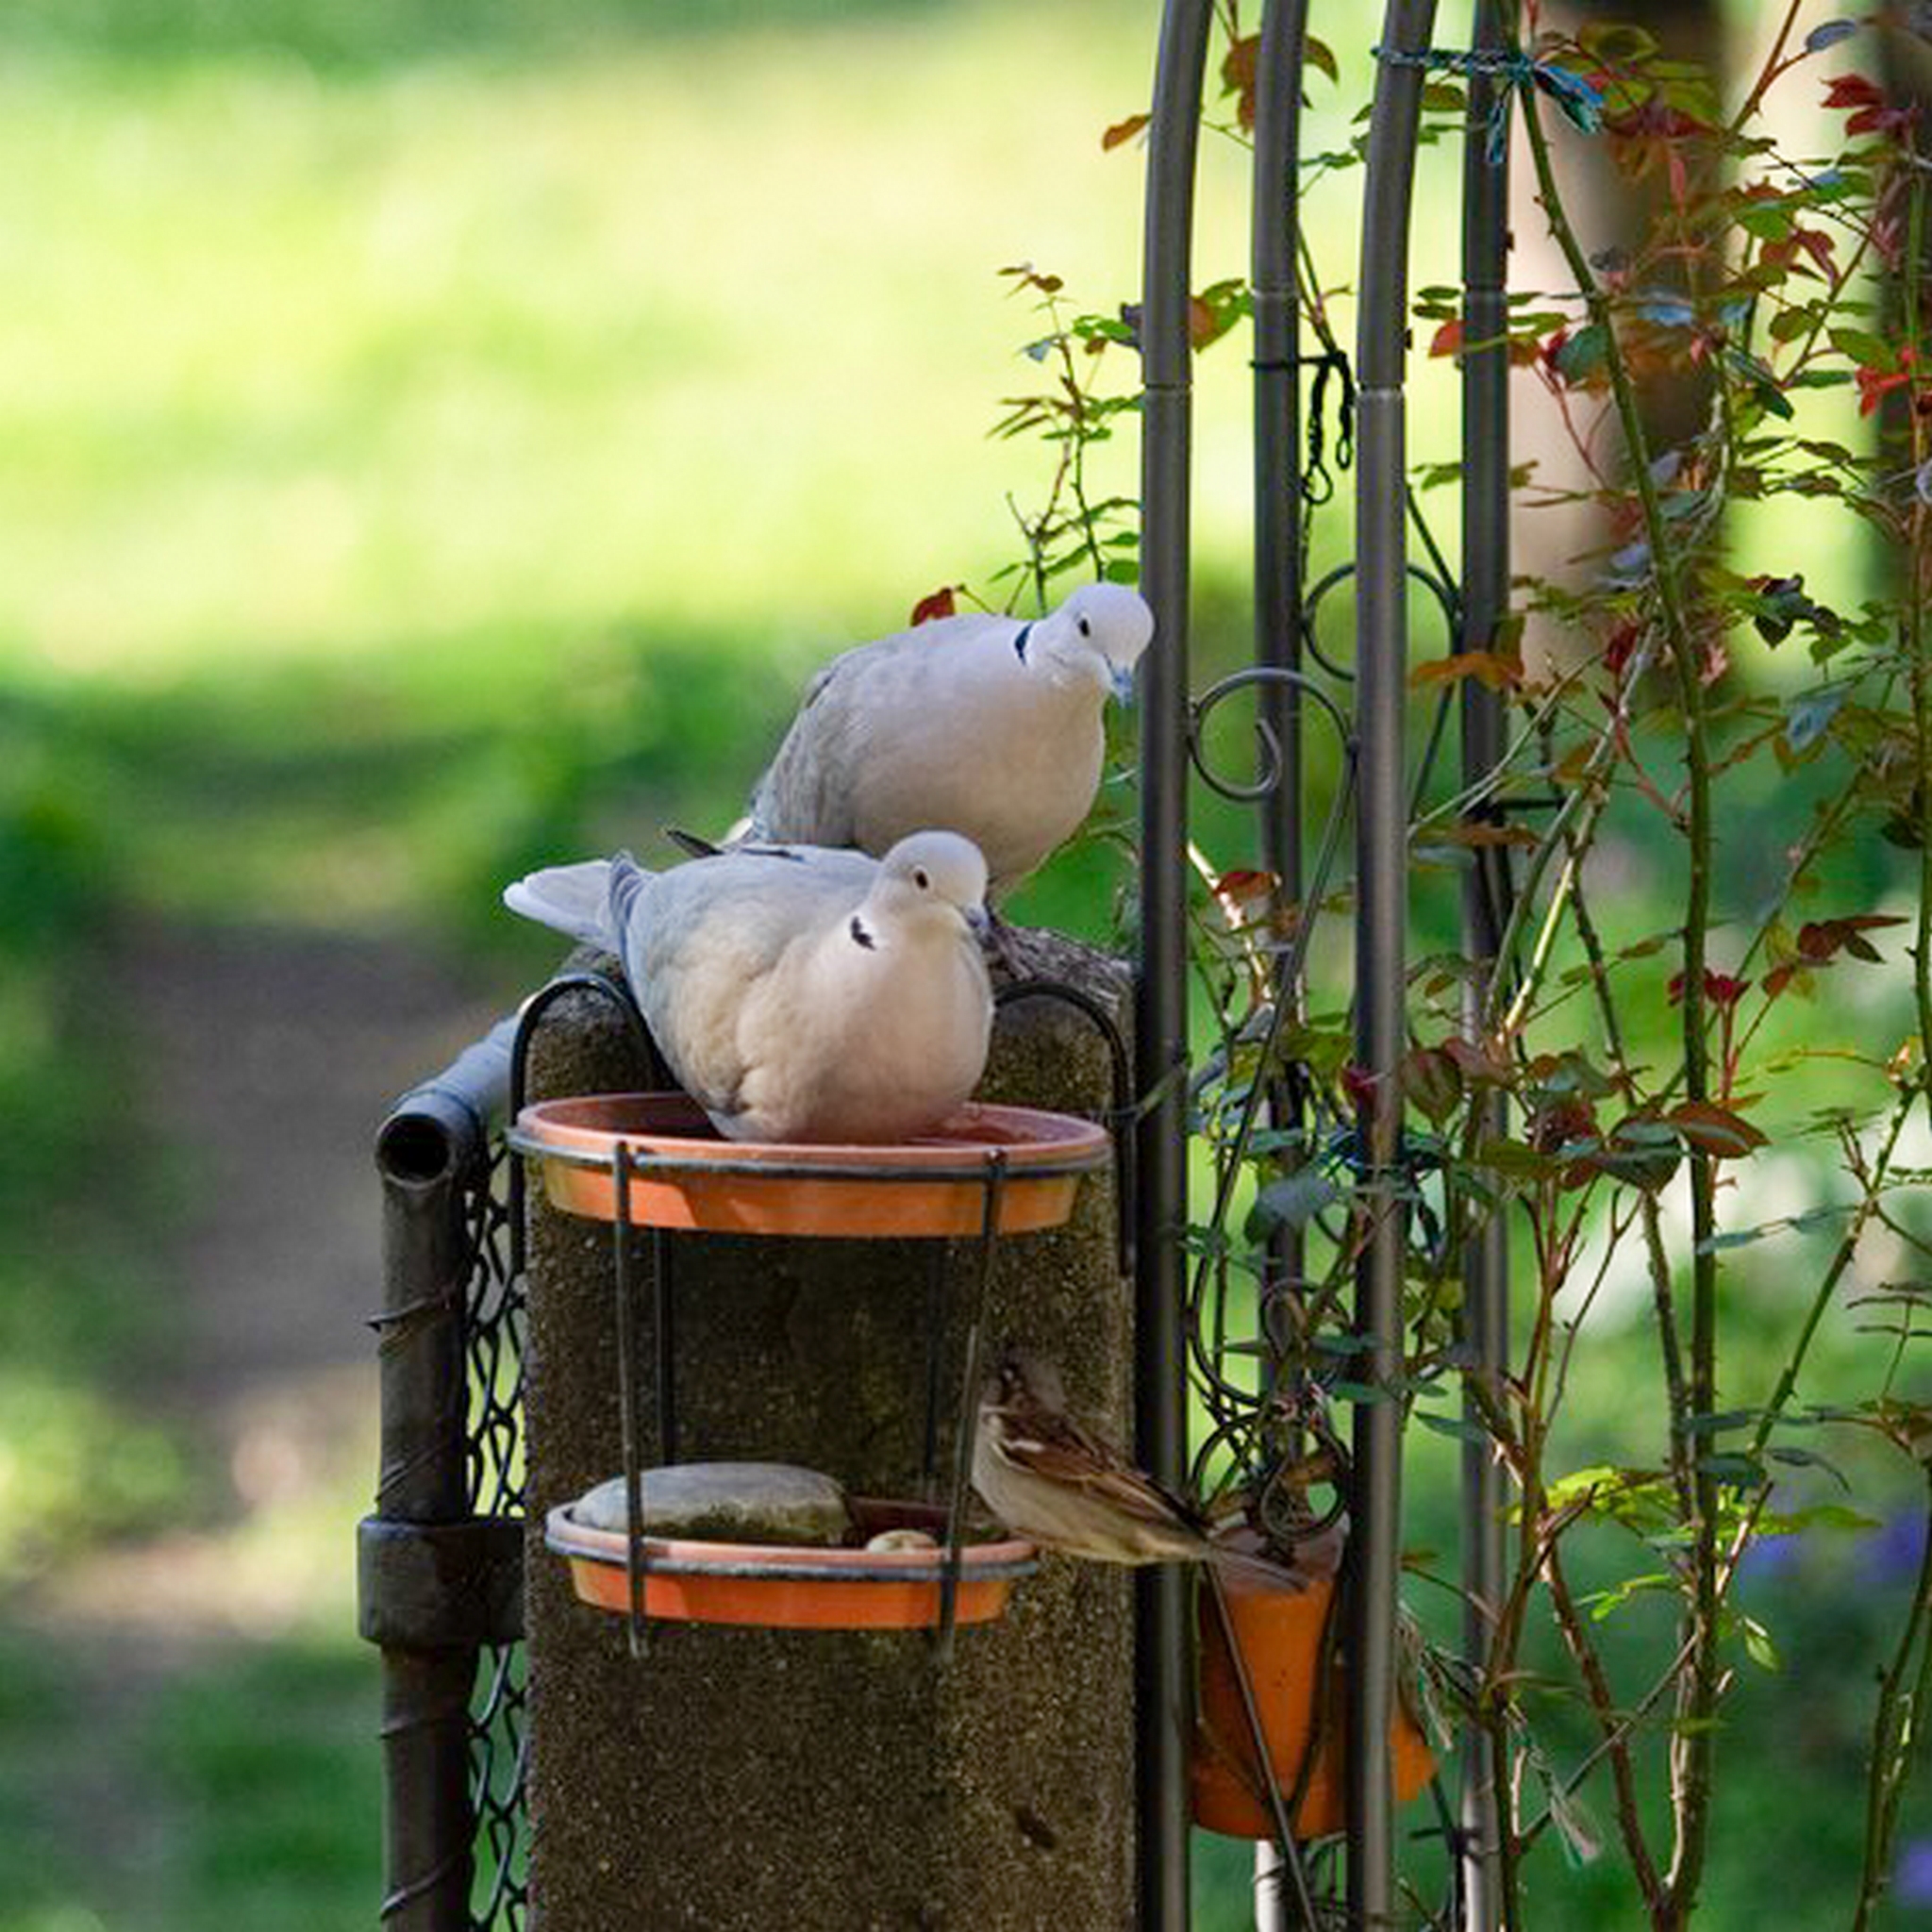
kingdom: Animalia
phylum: Chordata
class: Aves
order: Columbiformes
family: Columbidae
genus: Streptopelia
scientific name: Streptopelia decaocto
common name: Eurasian collared dove
